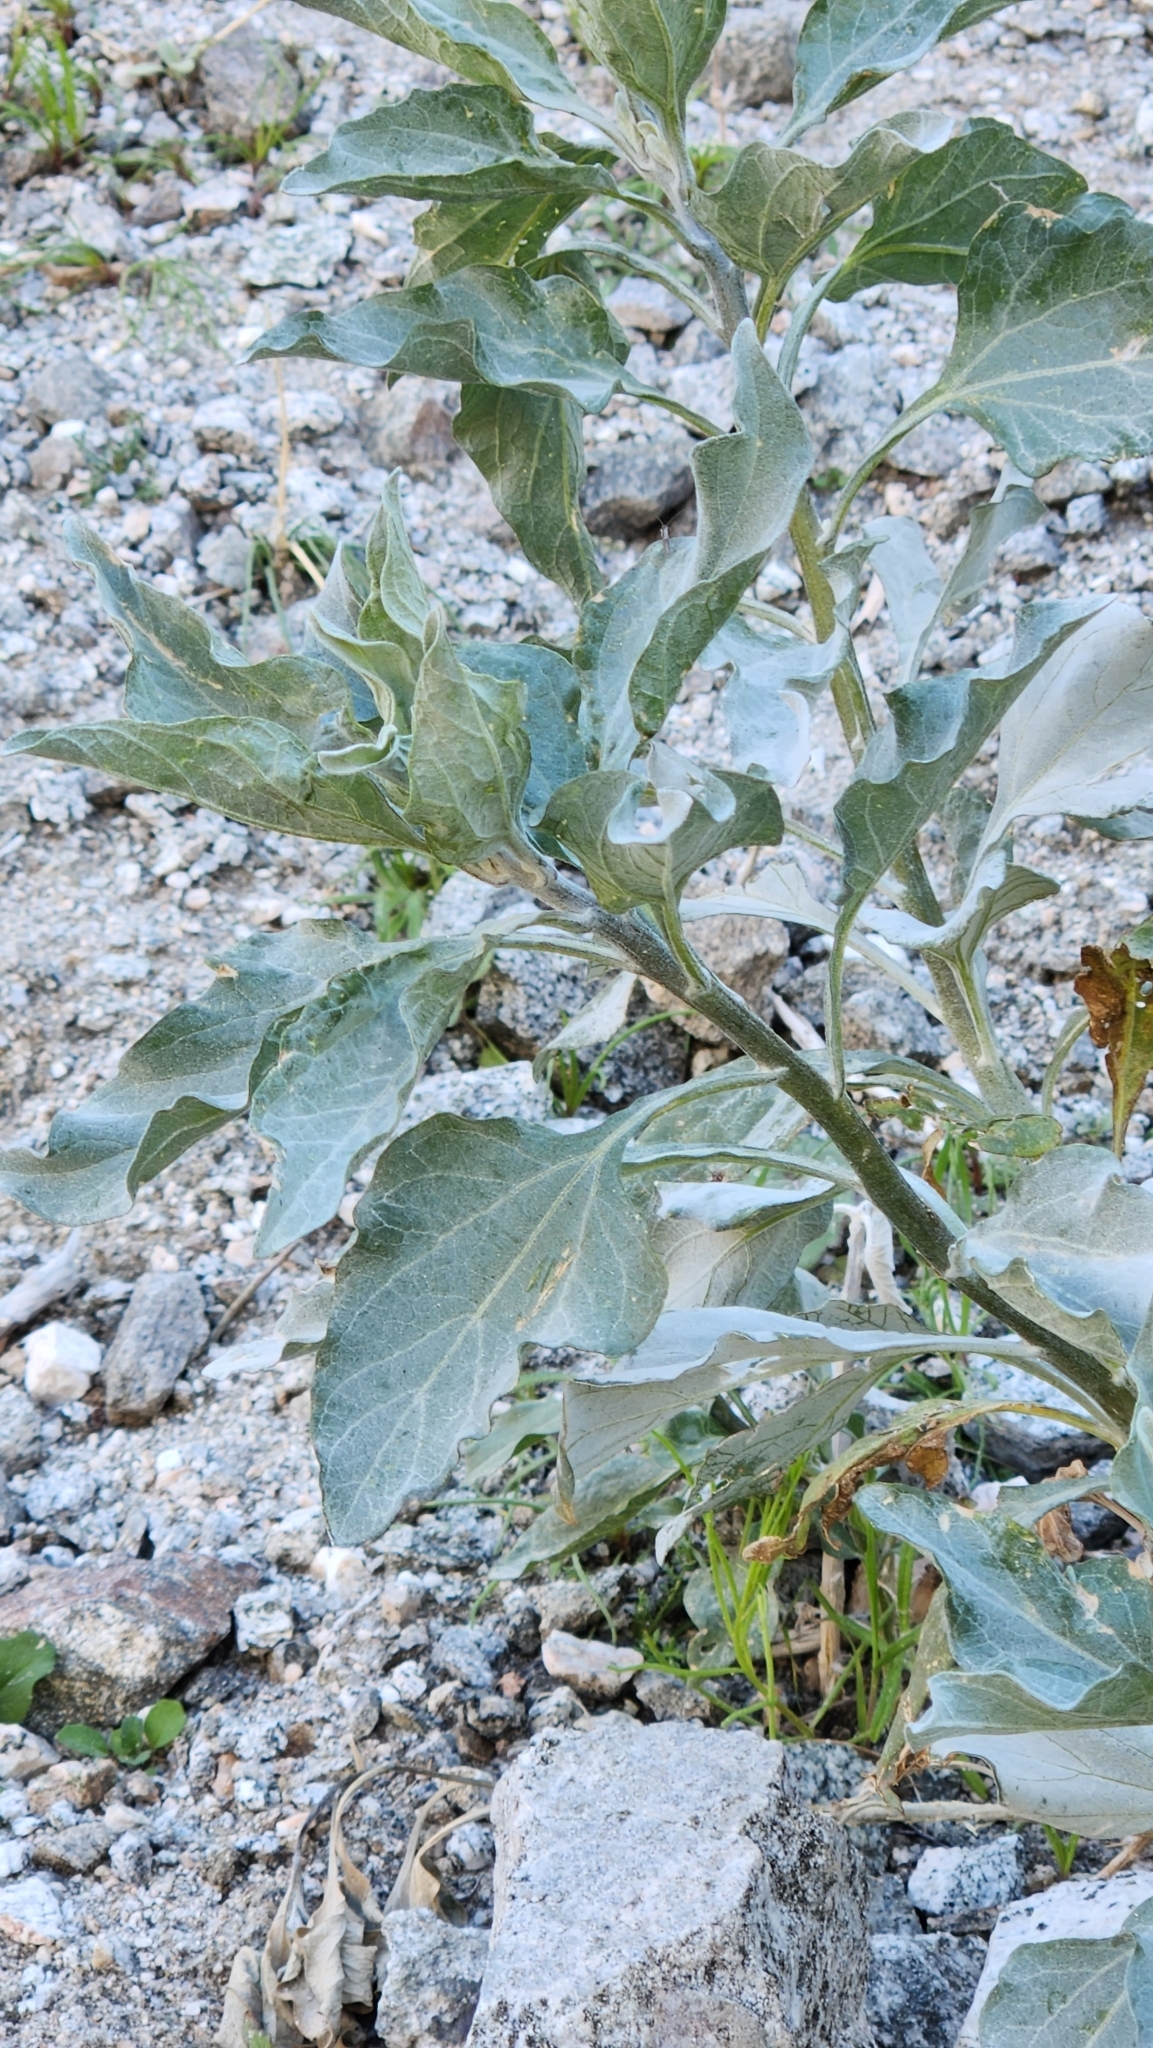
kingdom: Plantae
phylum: Tracheophyta
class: Magnoliopsida
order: Asterales
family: Asteraceae
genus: Encelia
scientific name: Encelia farinosa
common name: Brittlebush
